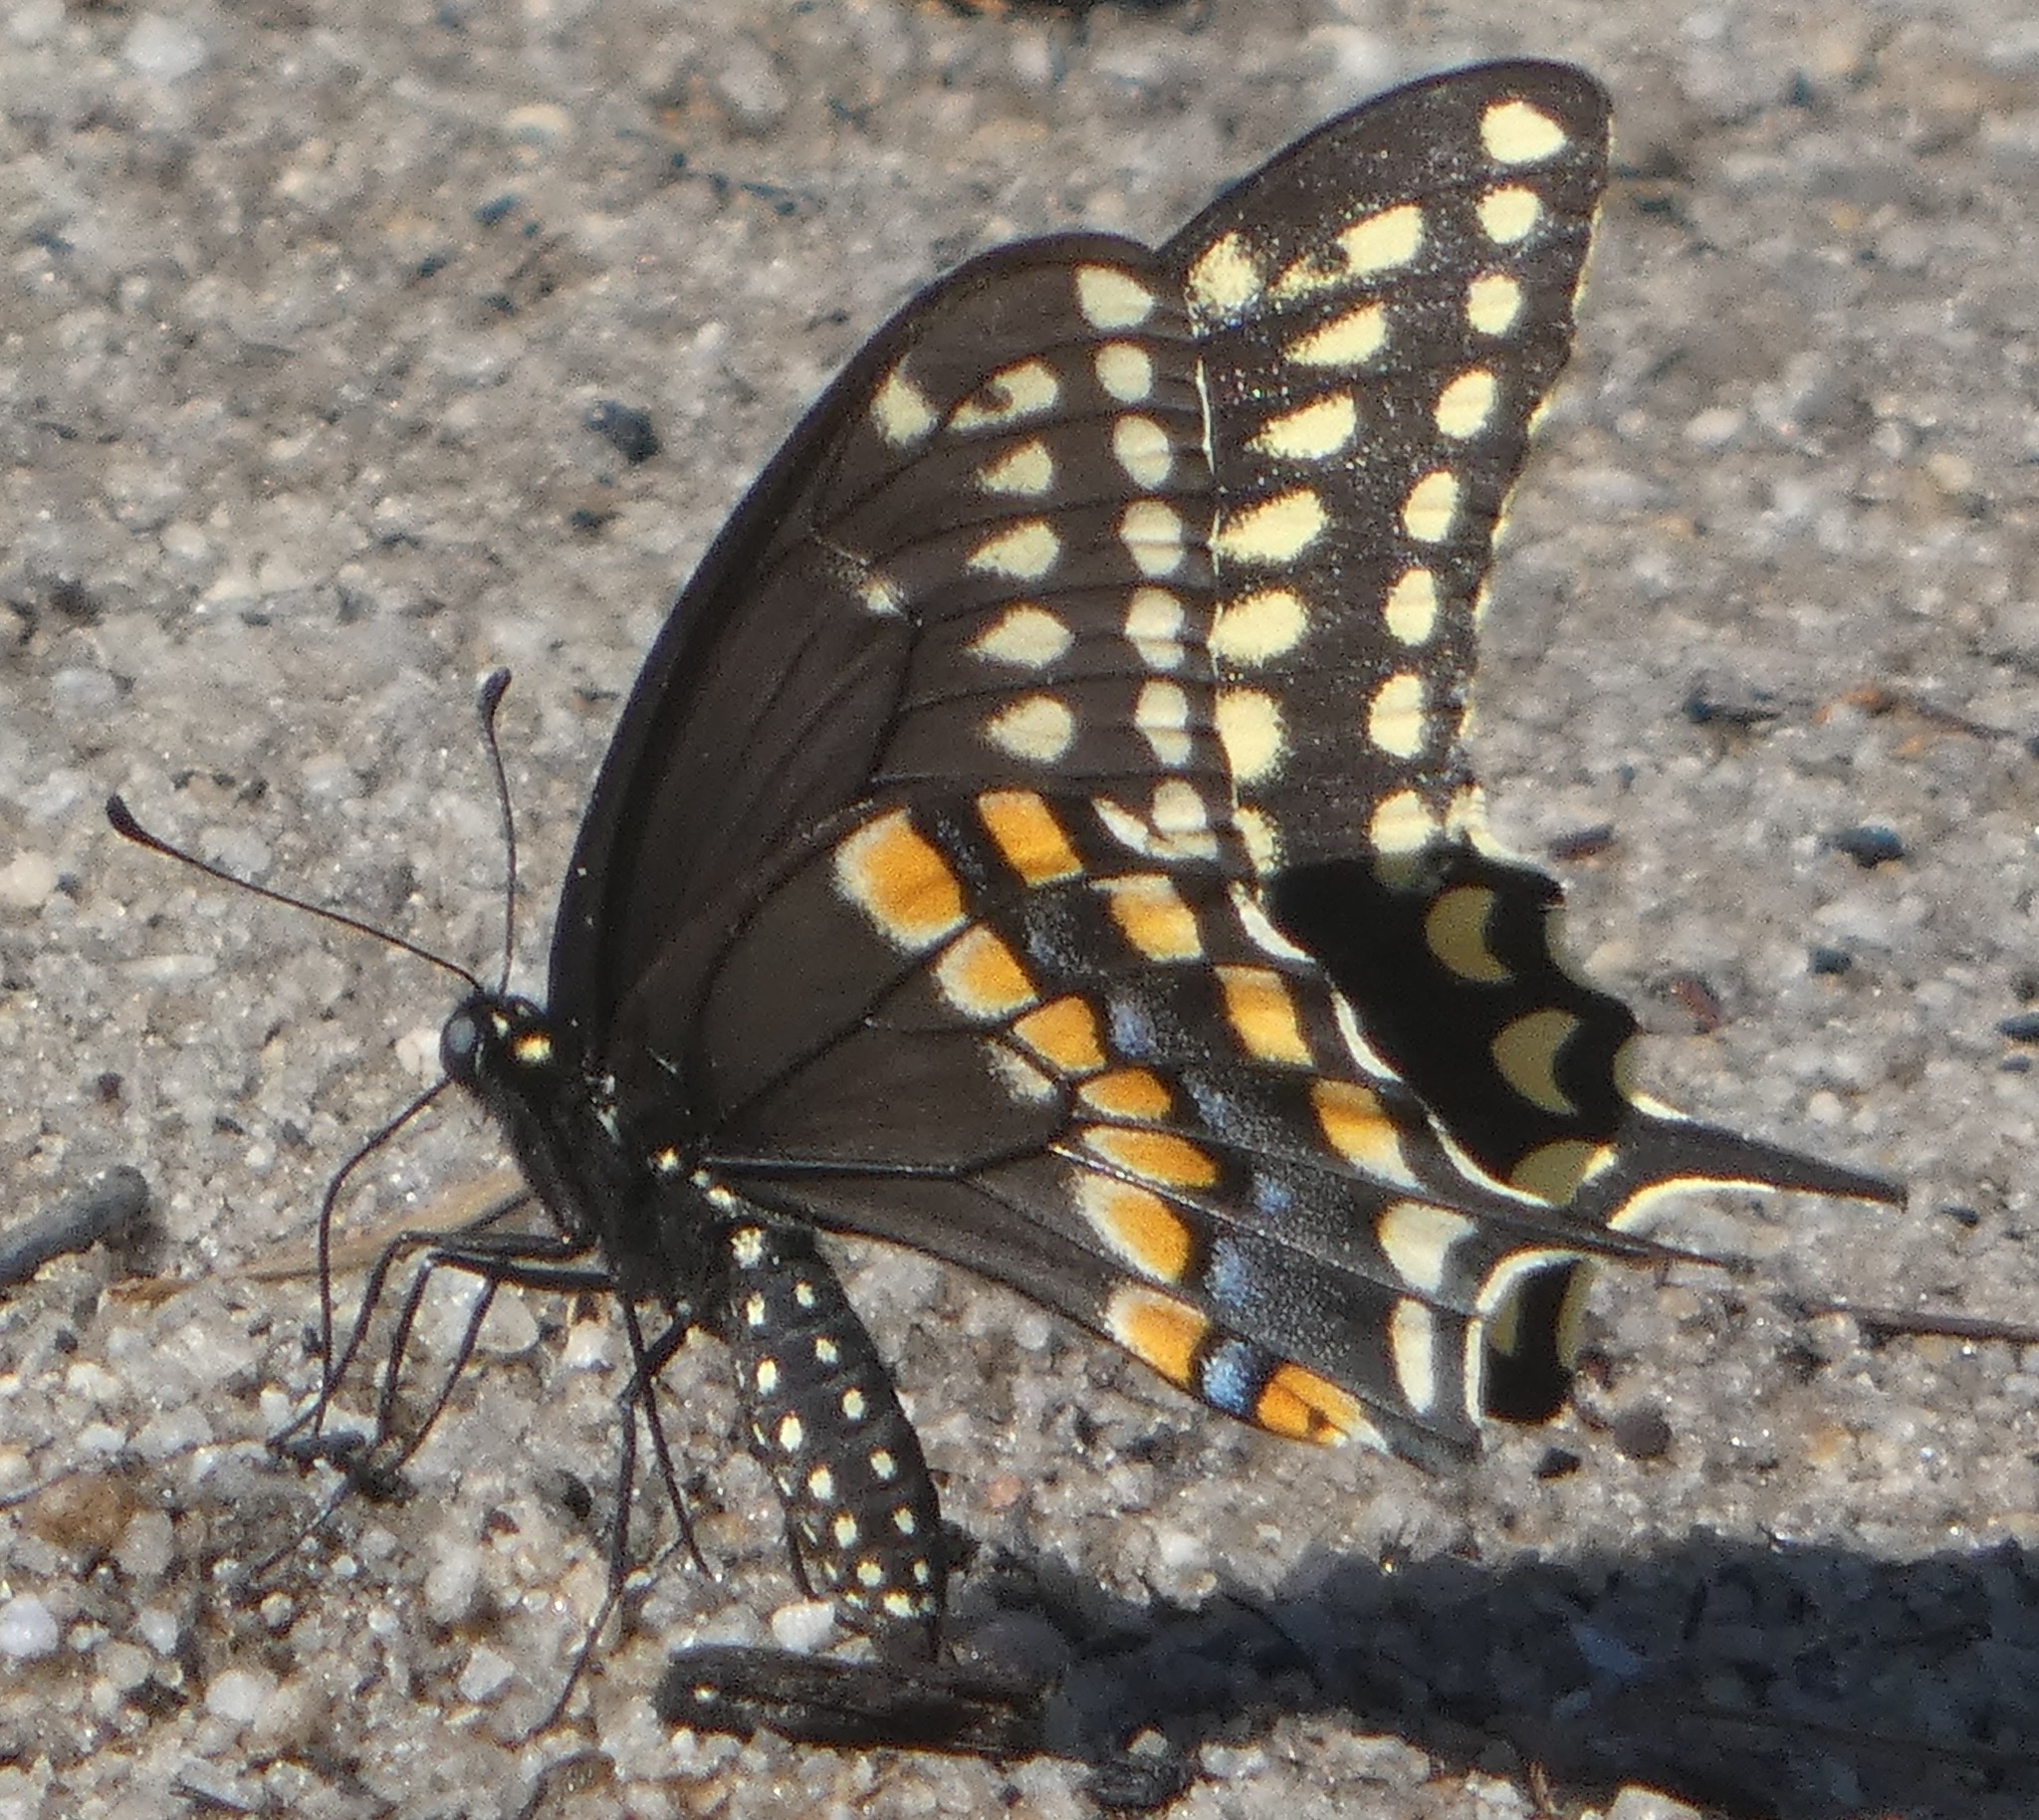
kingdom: Animalia
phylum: Arthropoda
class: Insecta
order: Lepidoptera
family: Papilionidae
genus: Papilio
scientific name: Papilio polyxenes
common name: Black swallowtail
